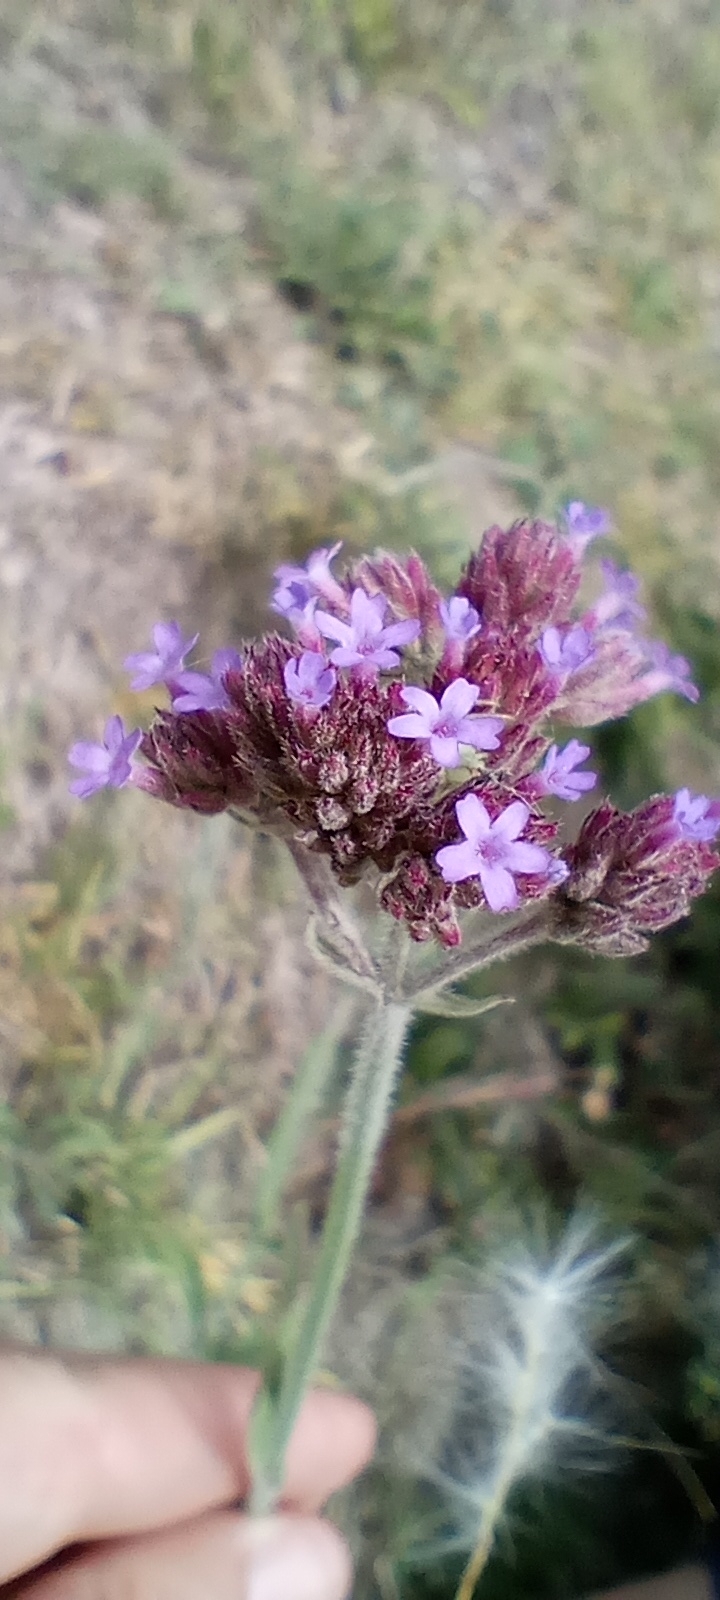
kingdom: Plantae
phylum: Tracheophyta
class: Magnoliopsida
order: Lamiales
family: Verbenaceae
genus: Verbena
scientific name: Verbena bonariensis
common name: Purpletop vervain
